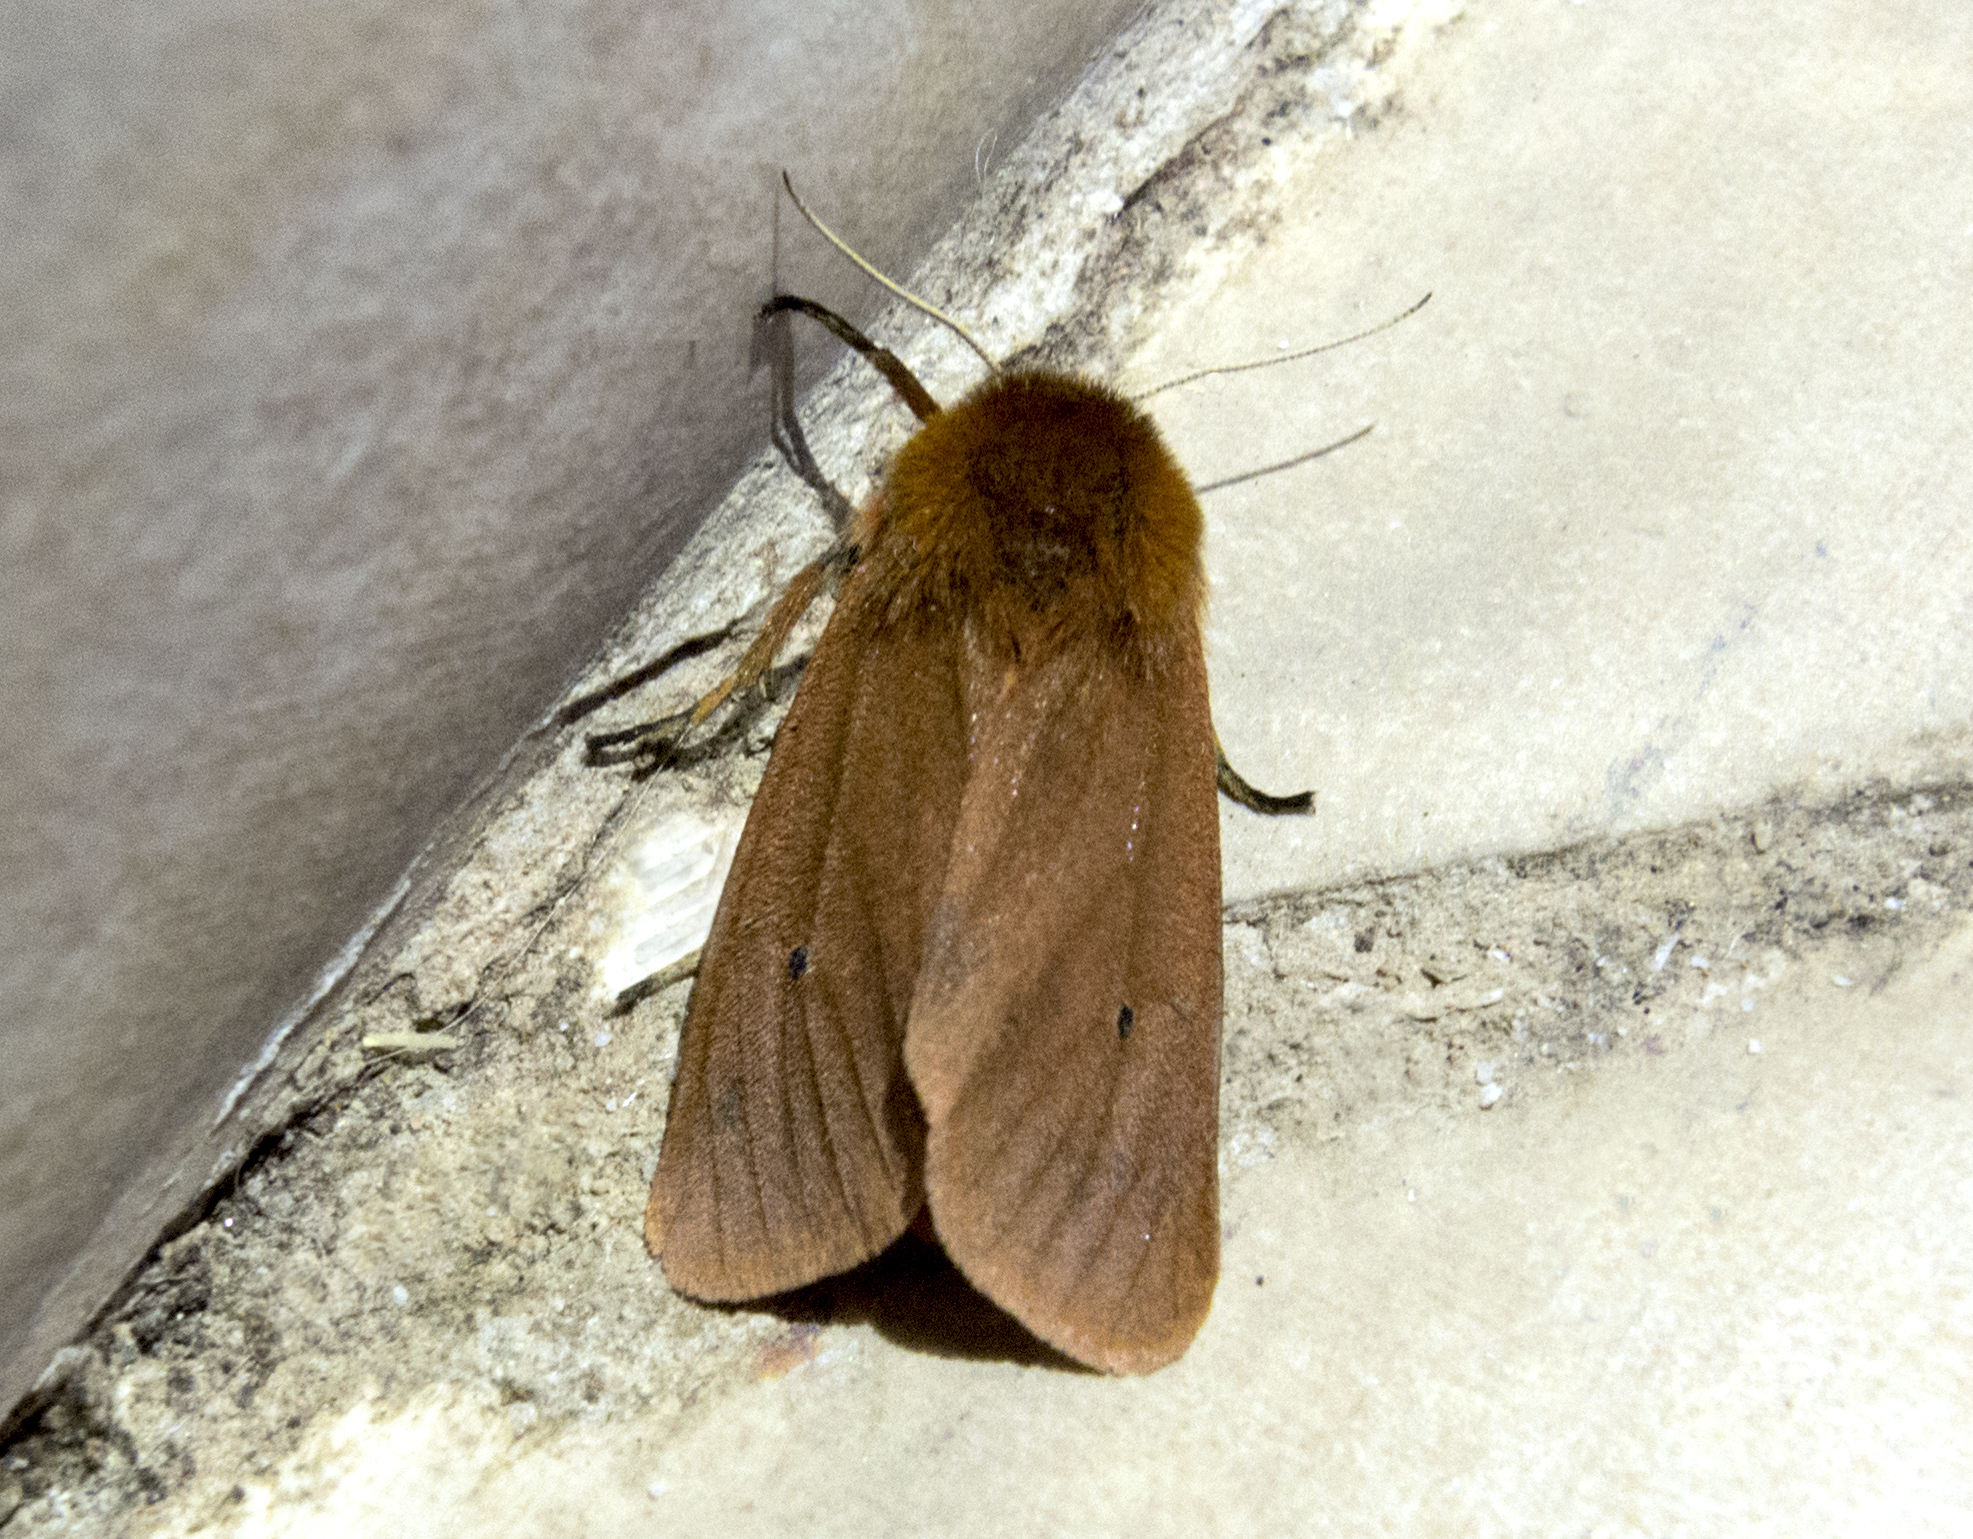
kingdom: Animalia
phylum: Arthropoda
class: Insecta
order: Lepidoptera
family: Erebidae
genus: Phragmatobia
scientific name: Phragmatobia fuliginosa
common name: Ruby tiger
